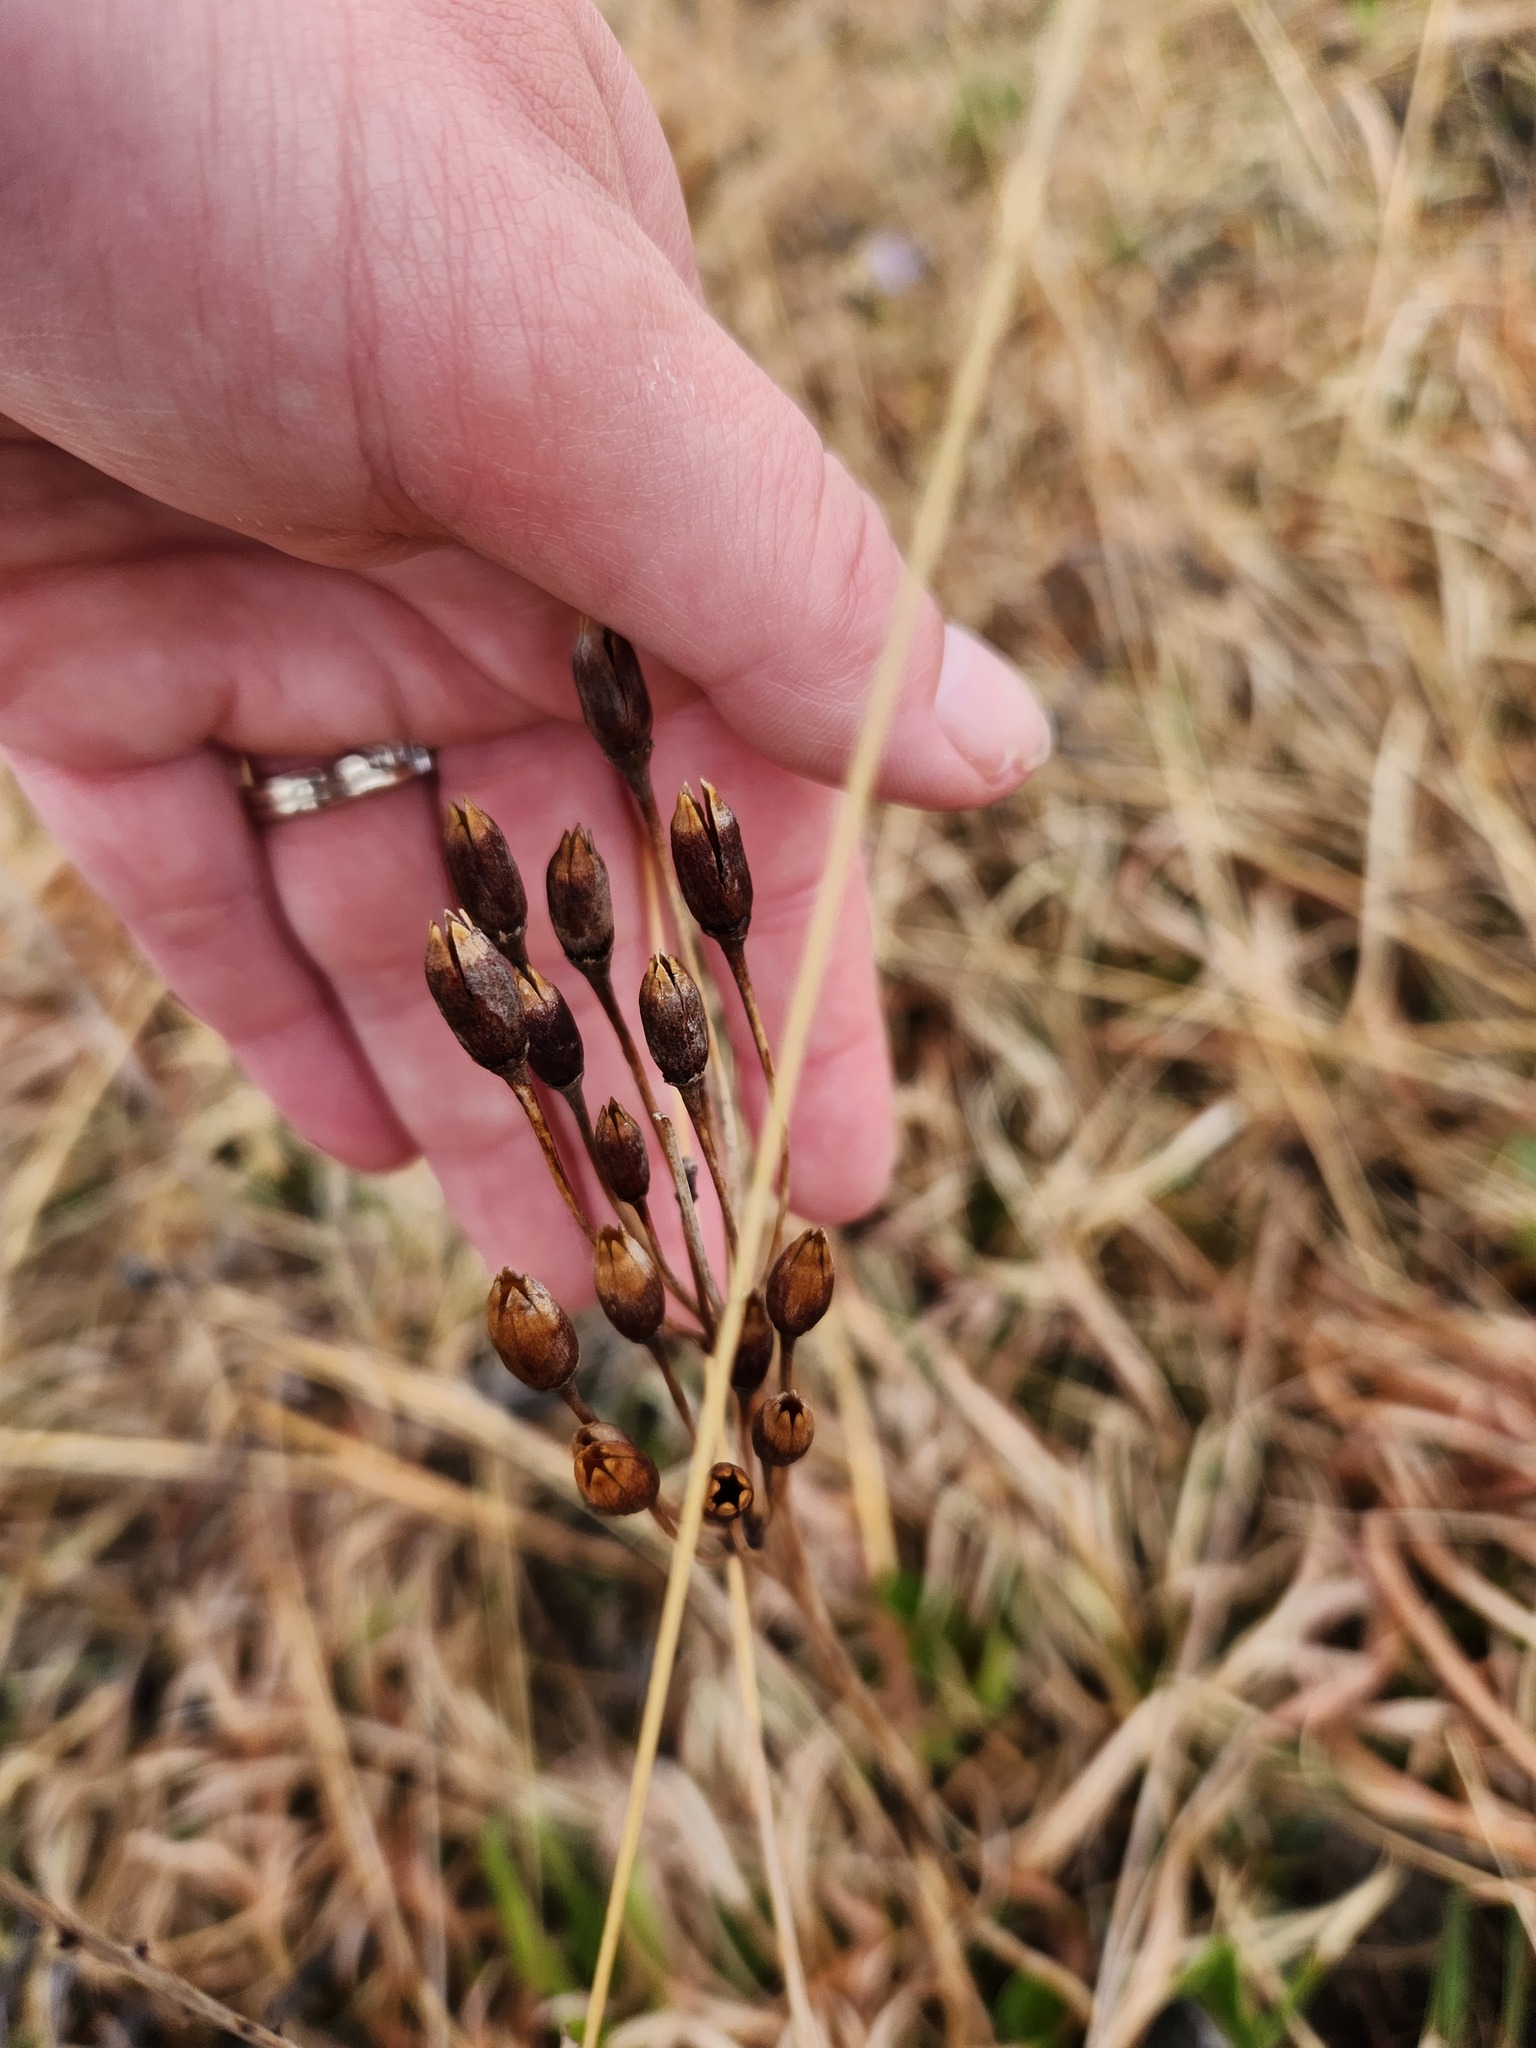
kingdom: Plantae
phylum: Tracheophyta
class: Magnoliopsida
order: Ericales
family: Primulaceae
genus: Dodecatheon
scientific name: Dodecatheon meadia
